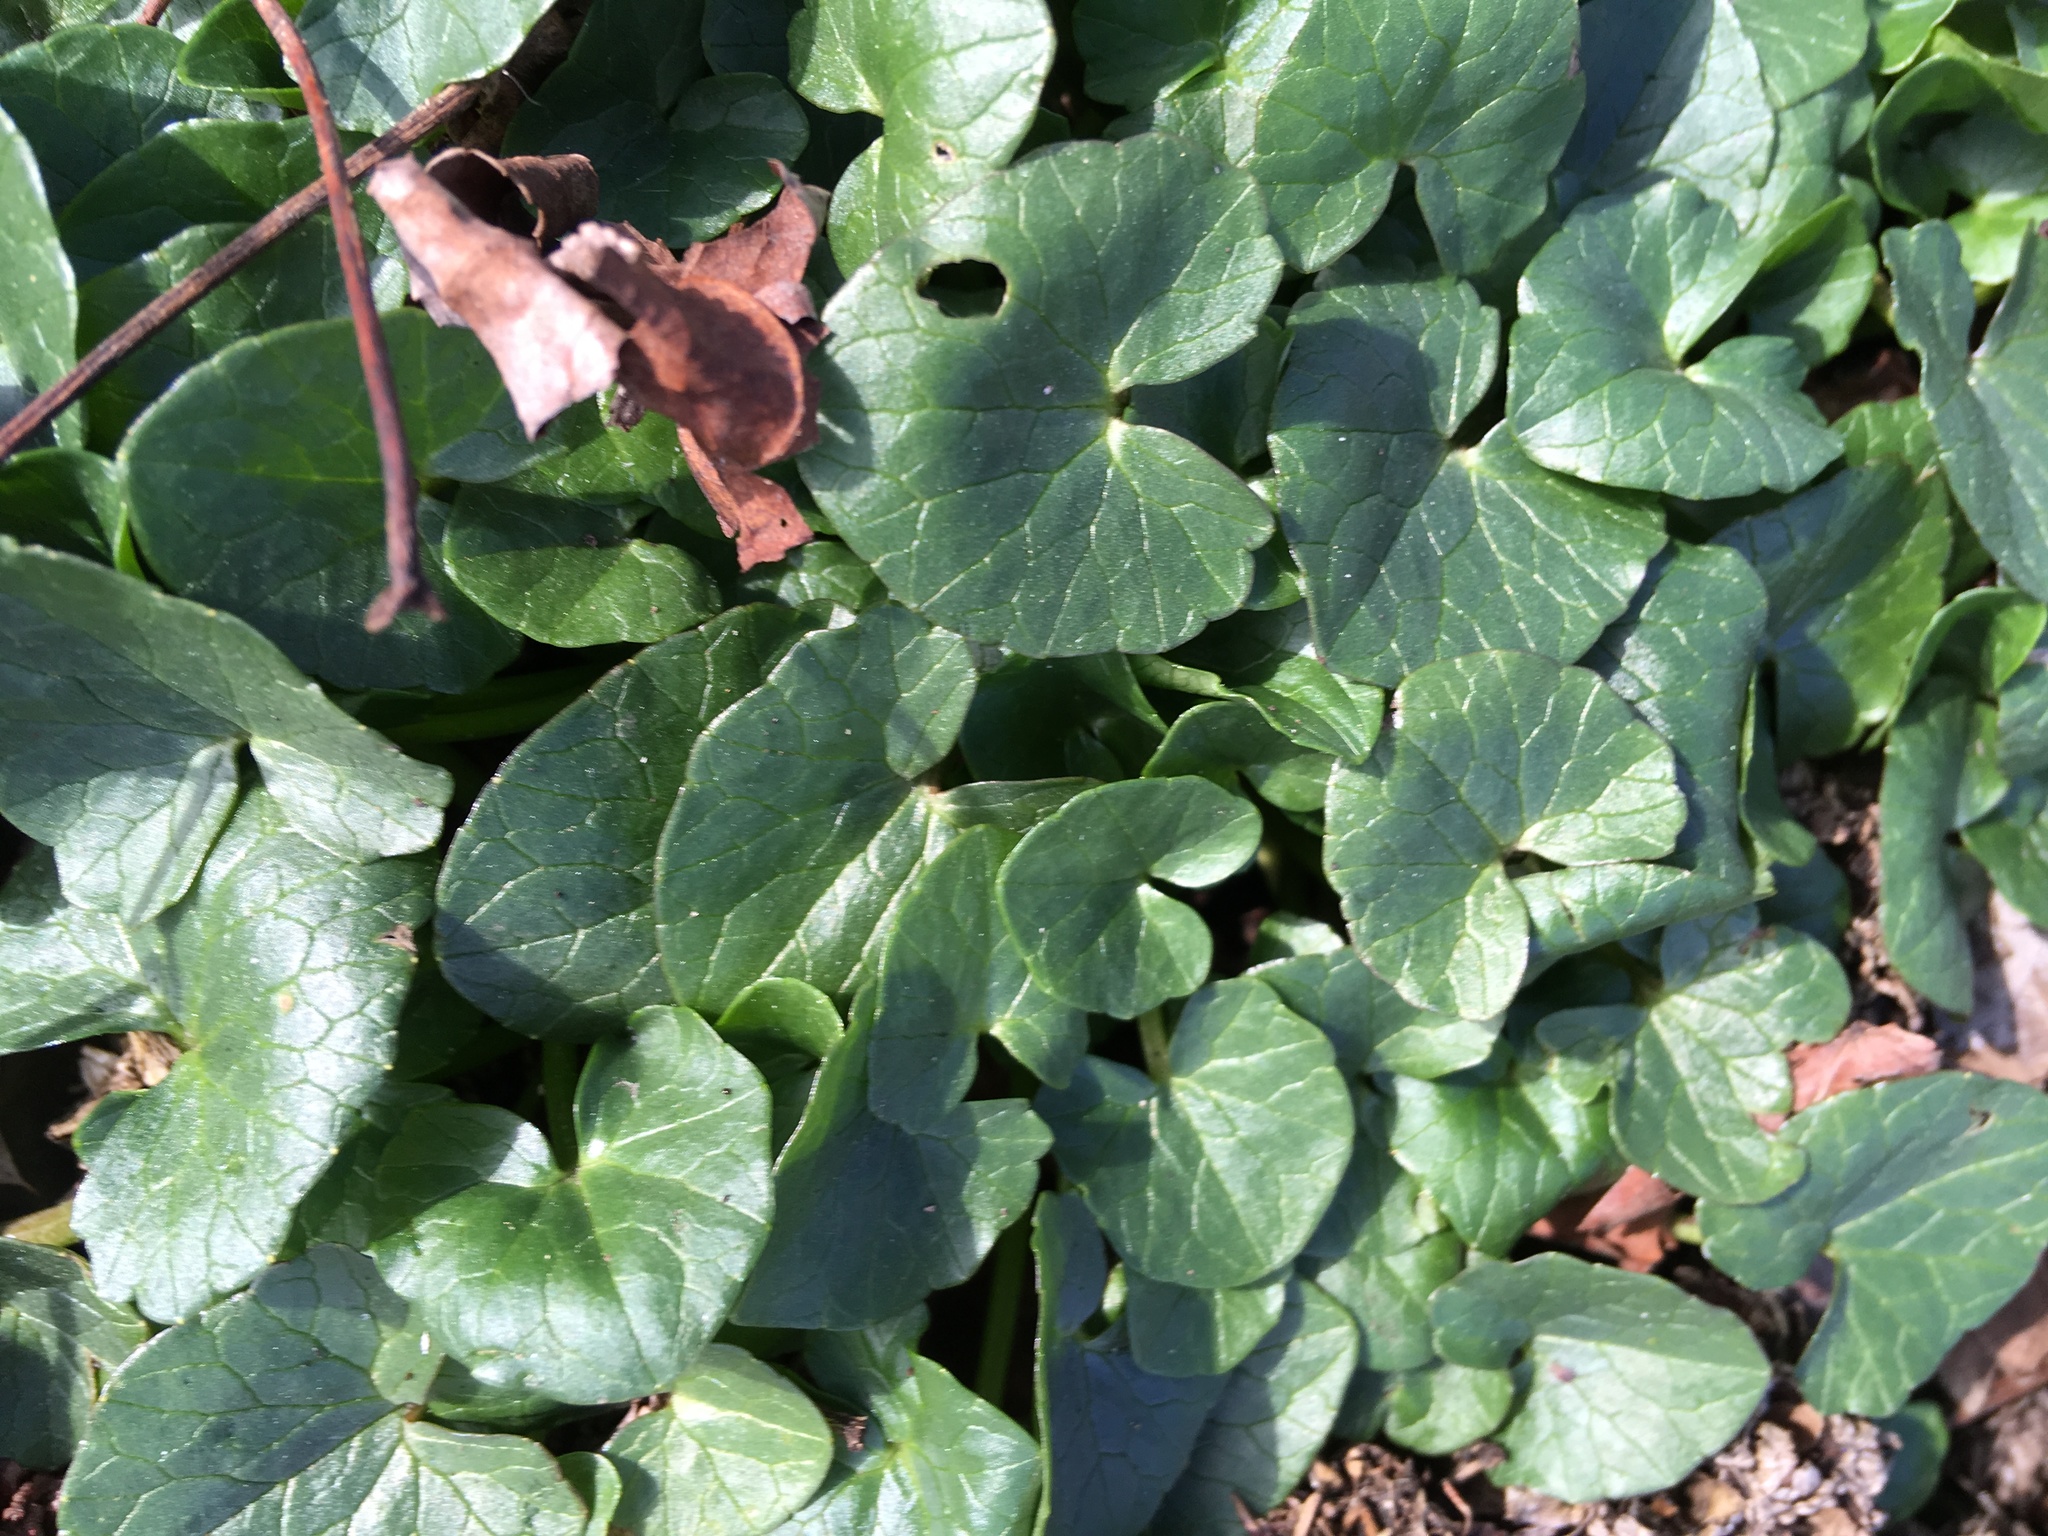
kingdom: Plantae
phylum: Tracheophyta
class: Magnoliopsida
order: Ranunculales
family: Ranunculaceae
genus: Ficaria
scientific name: Ficaria verna
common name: Lesser celandine
